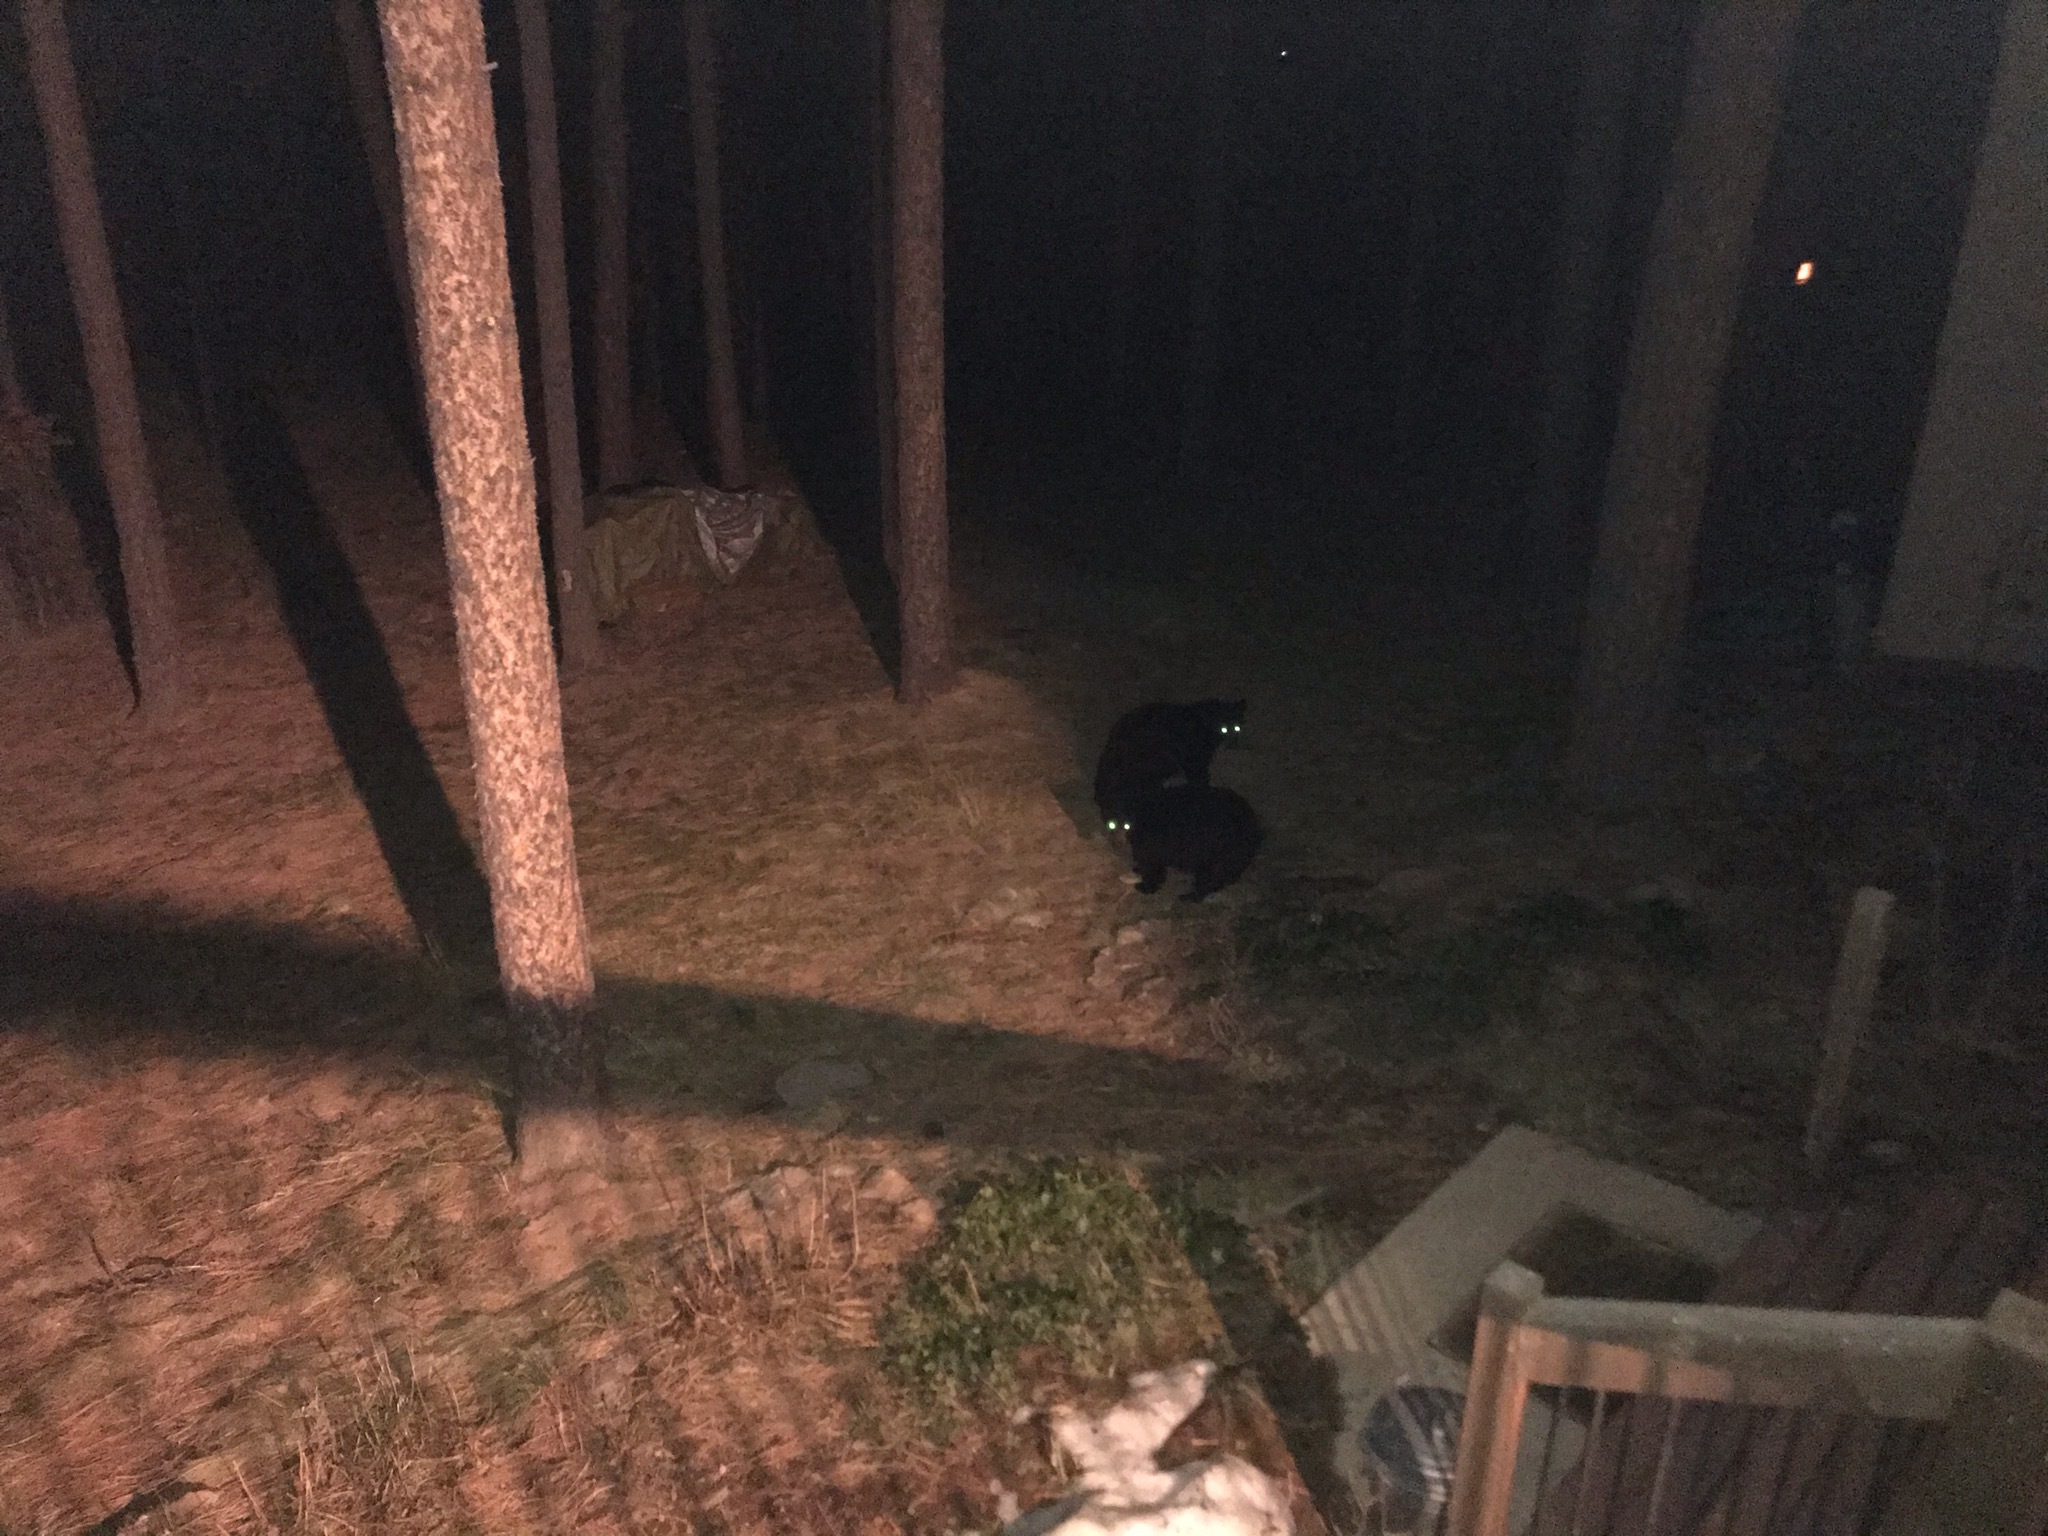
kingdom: Animalia
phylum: Chordata
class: Mammalia
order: Carnivora
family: Ursidae
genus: Ursus
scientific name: Ursus americanus
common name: American black bear
